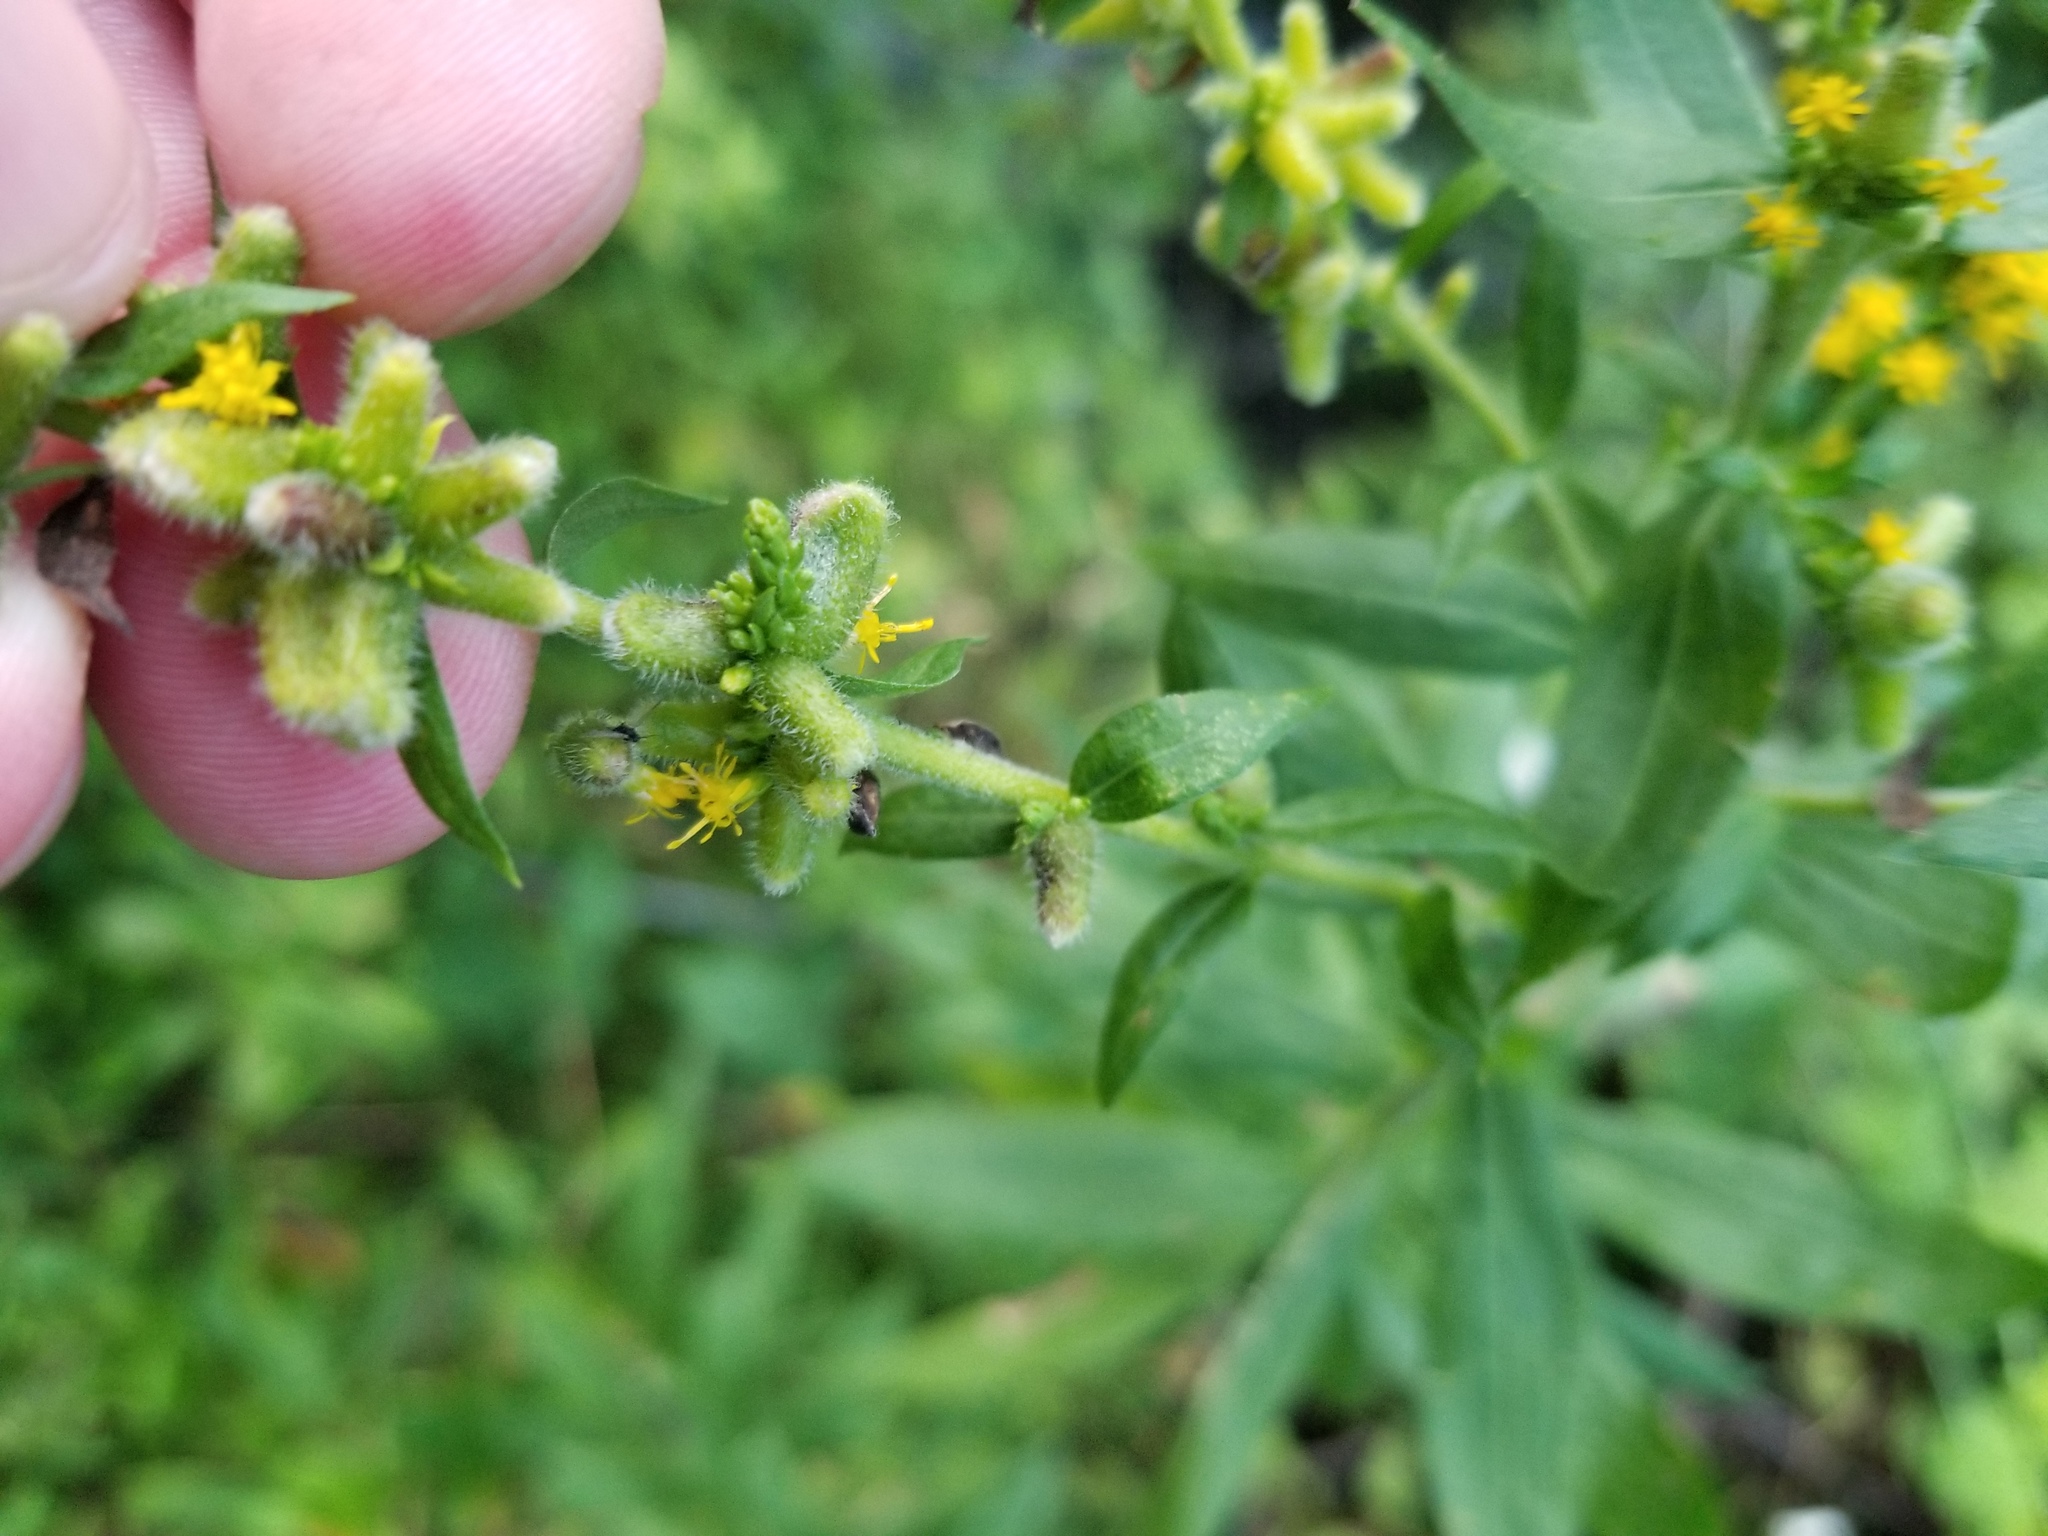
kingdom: Animalia
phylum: Arthropoda
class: Insecta
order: Diptera
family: Cecidomyiidae
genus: Rhopalomyia
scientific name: Rhopalomyia anthophila
